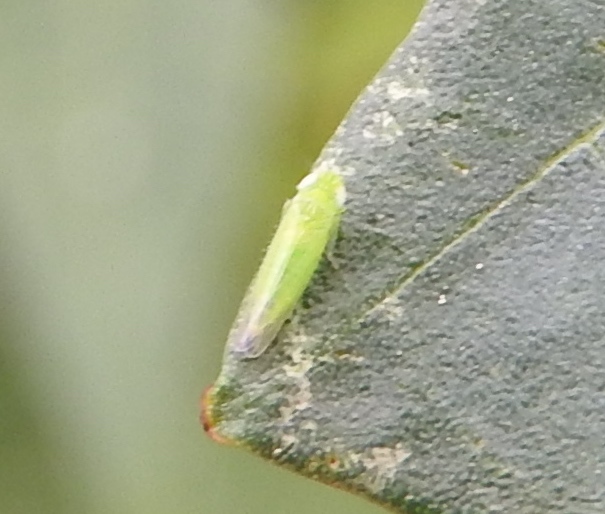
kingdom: Animalia
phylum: Arthropoda
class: Insecta
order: Hemiptera
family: Cicadellidae
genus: Empoasca
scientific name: Empoasca
